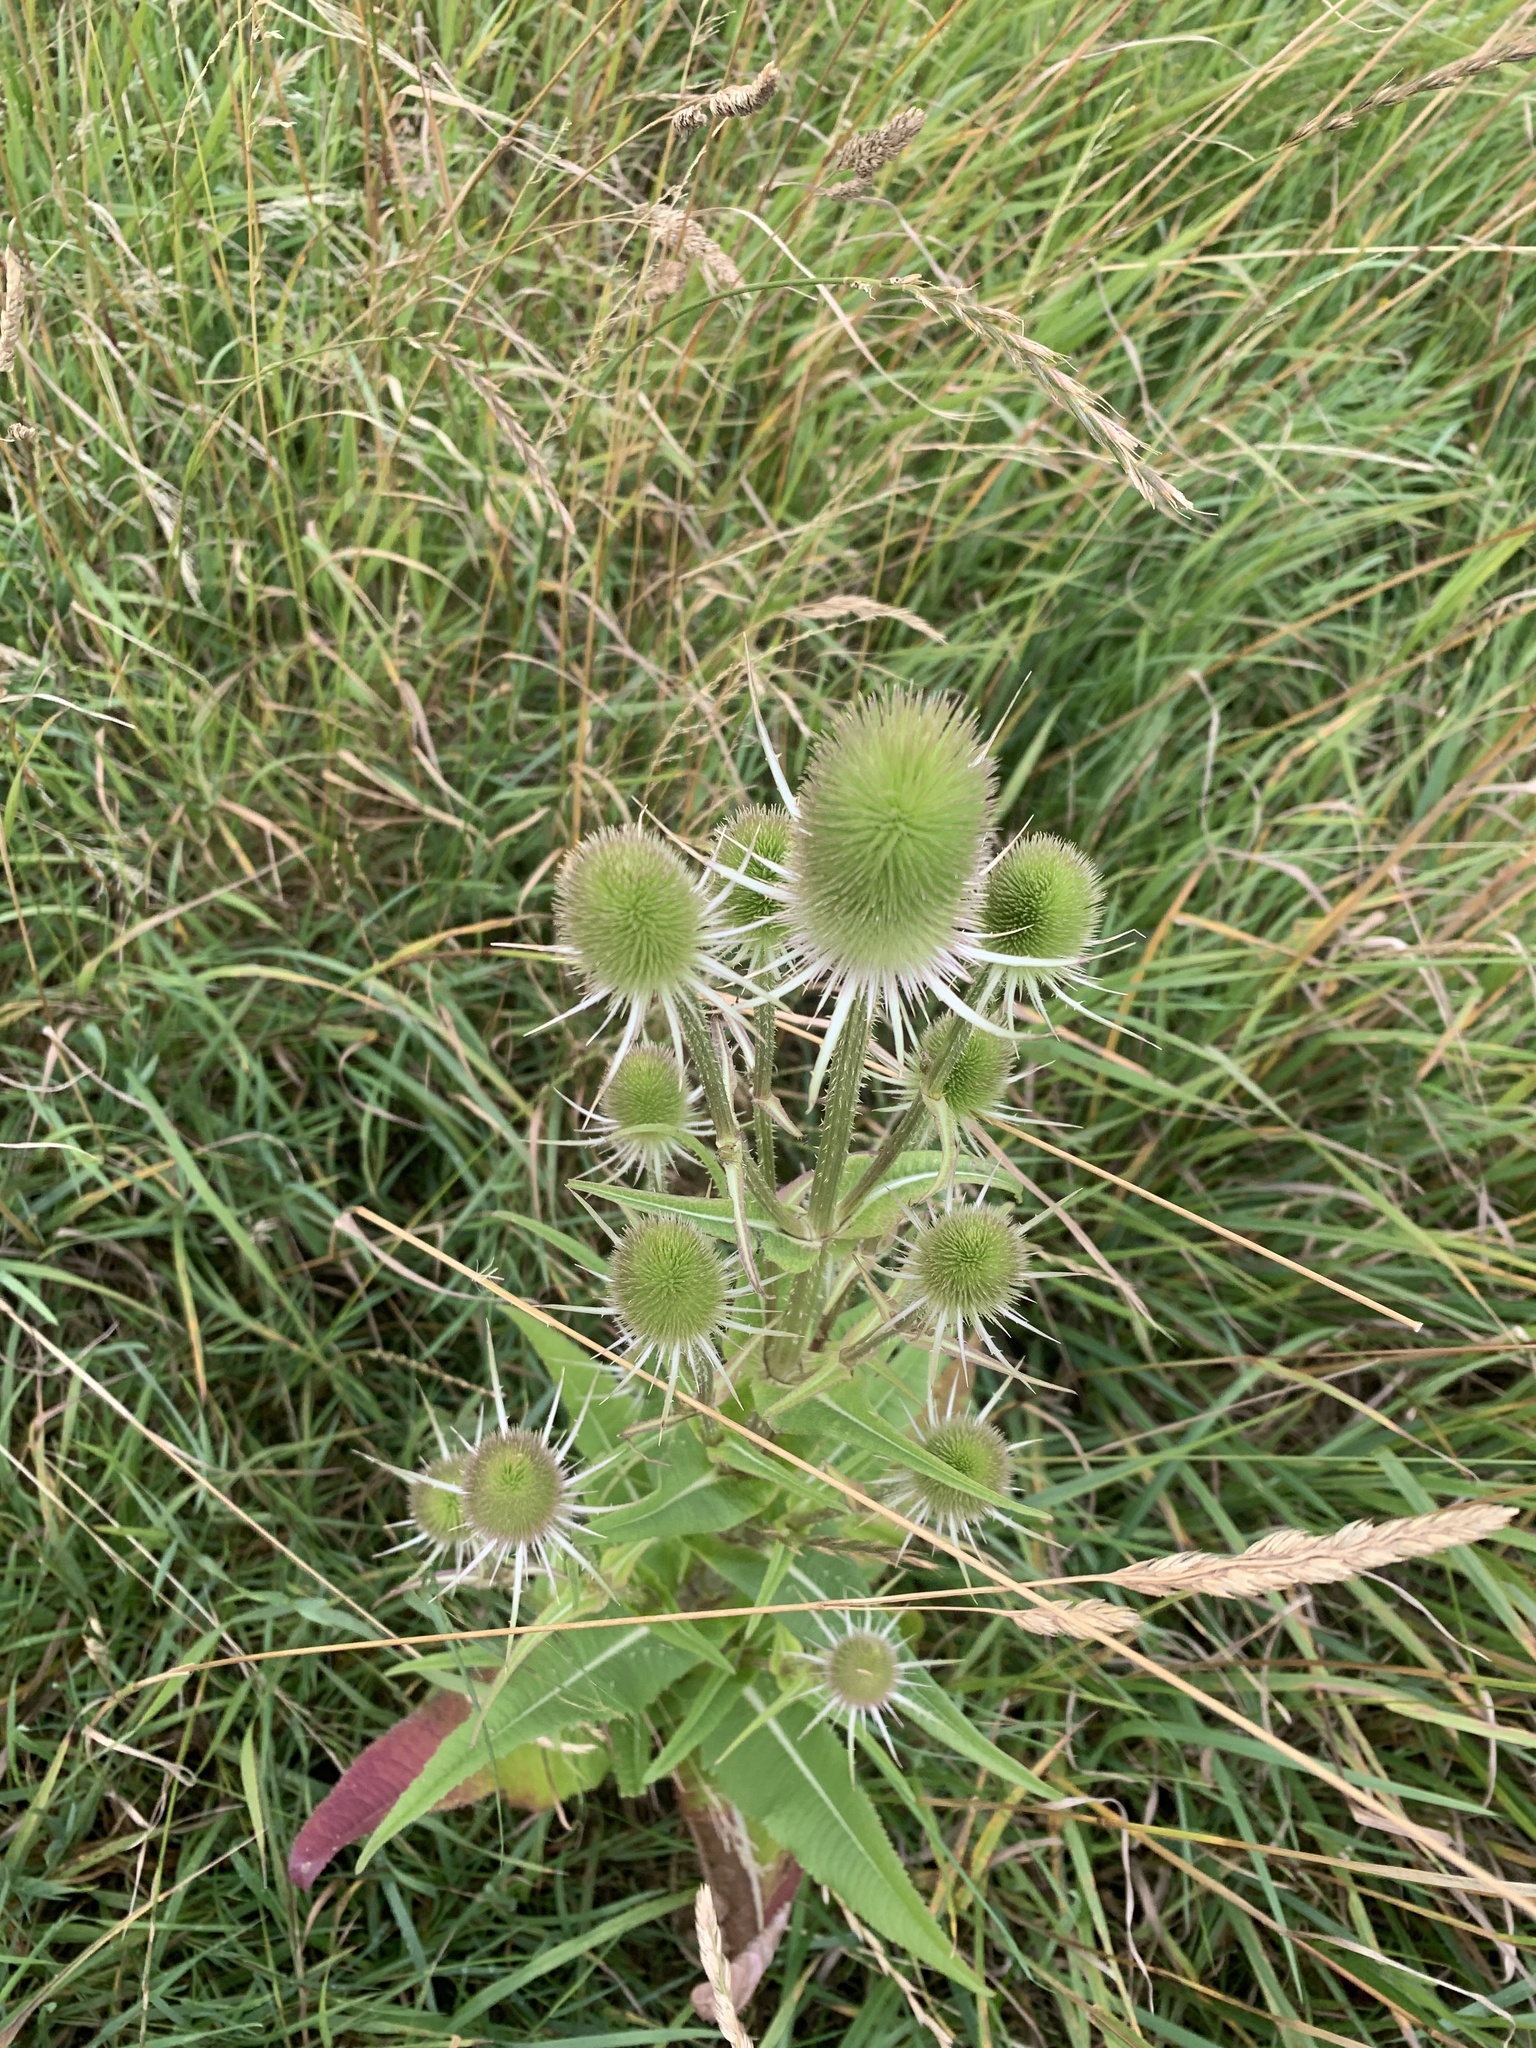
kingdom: Plantae
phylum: Tracheophyta
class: Magnoliopsida
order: Dipsacales
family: Caprifoliaceae
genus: Dipsacus
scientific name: Dipsacus fullonum
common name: Teasel
